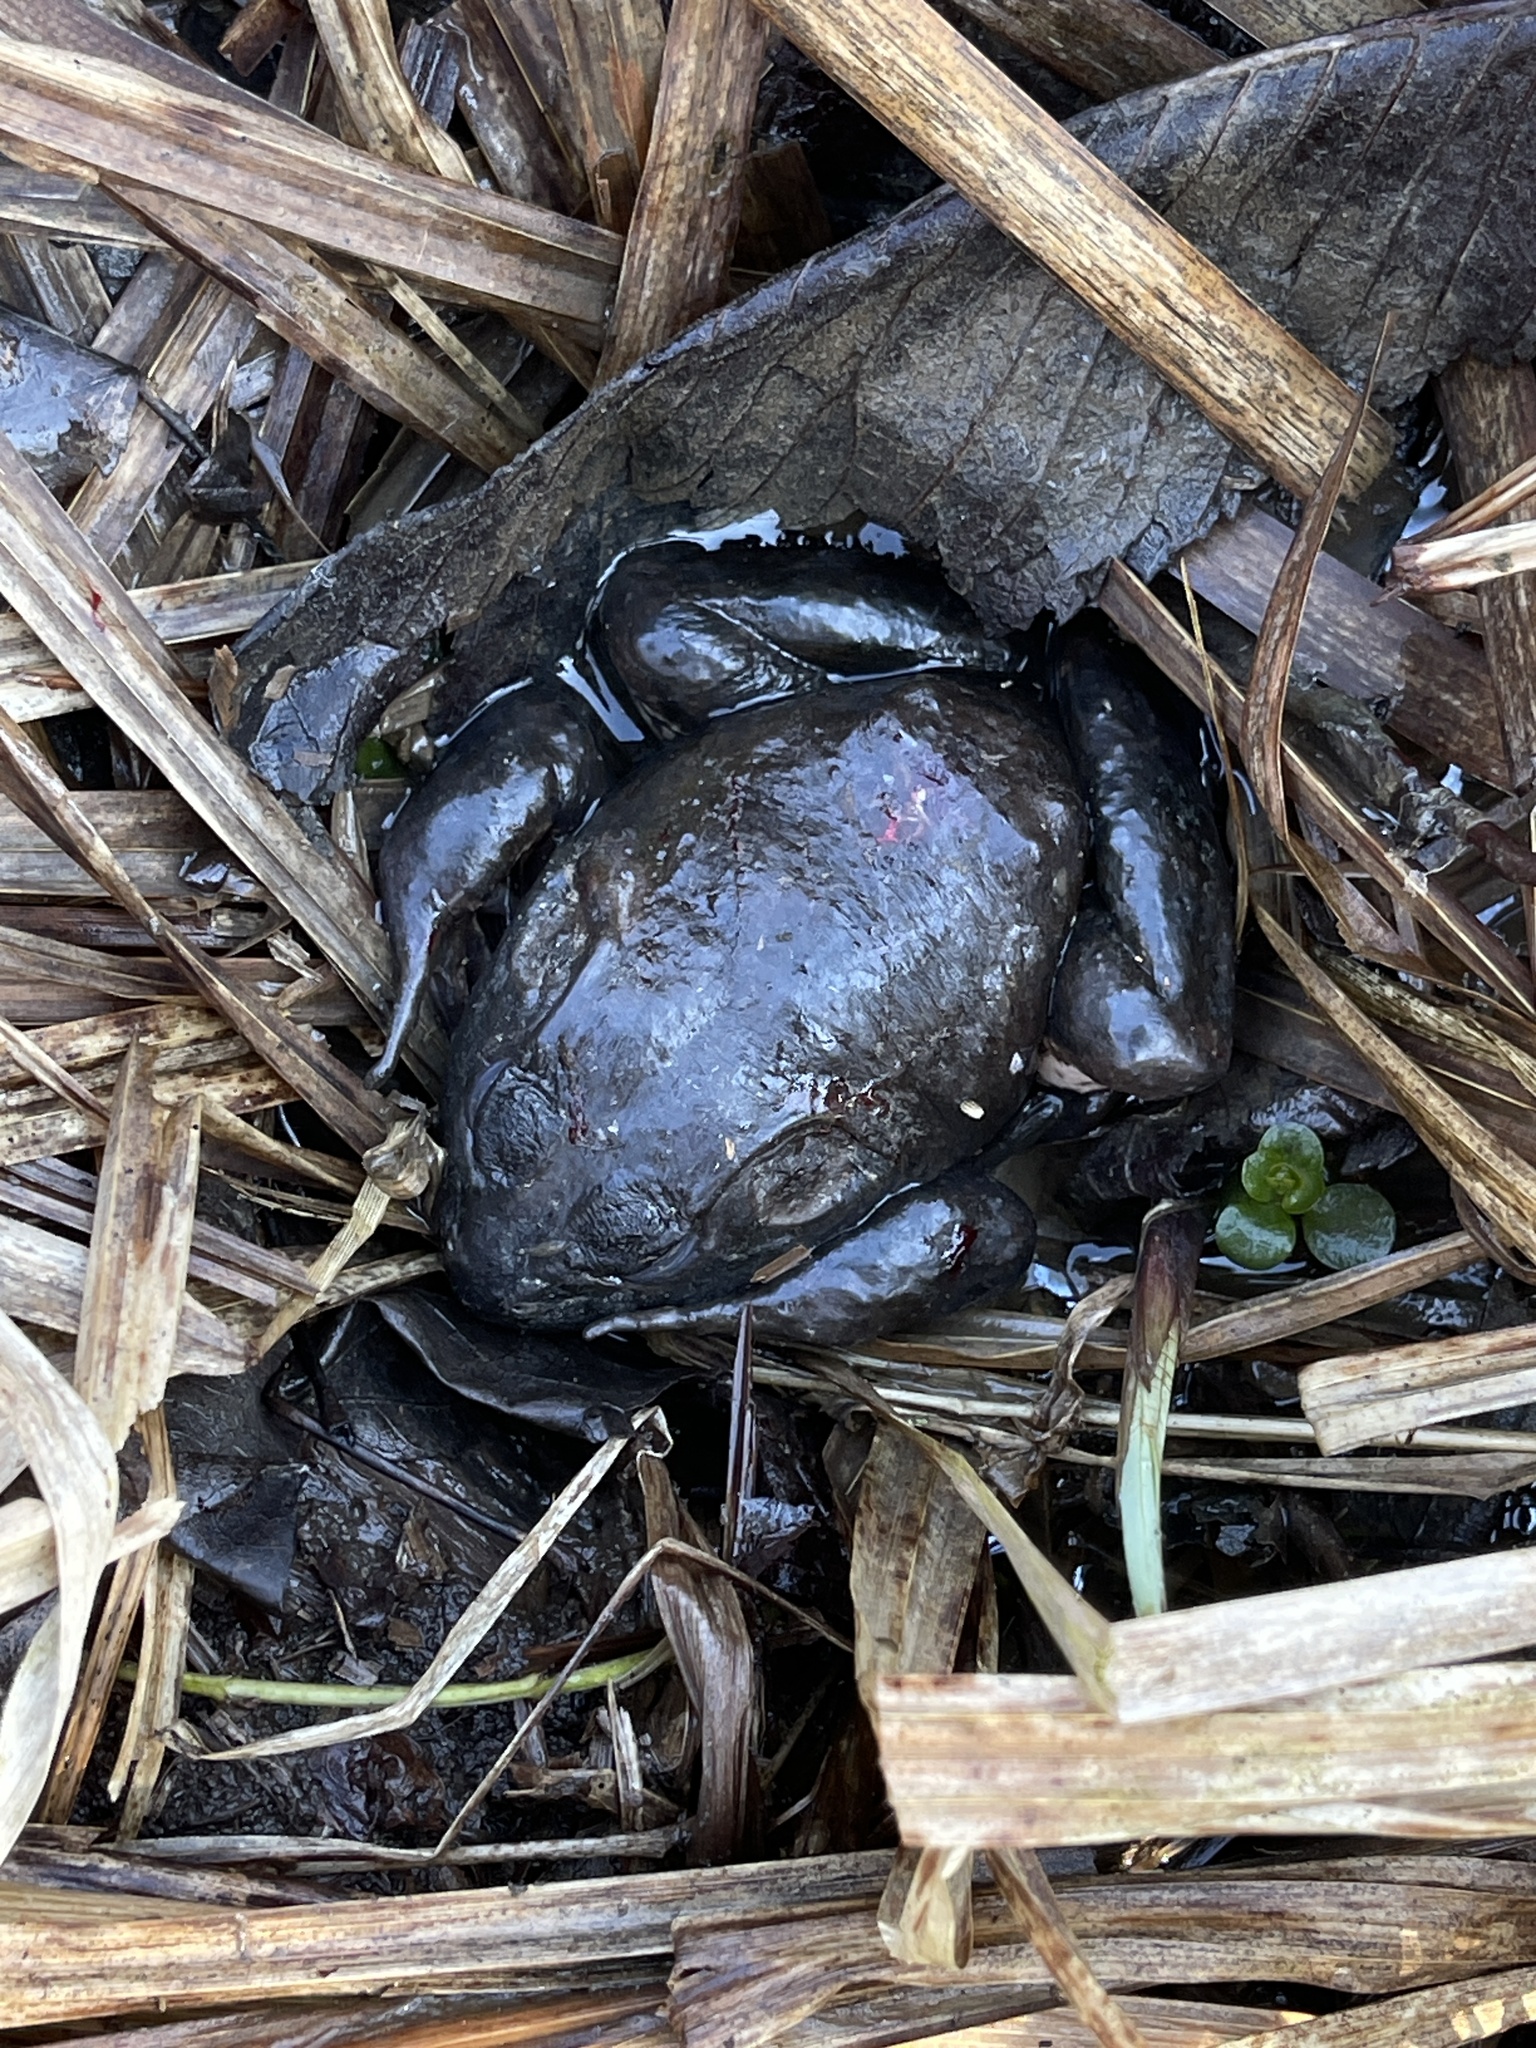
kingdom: Animalia
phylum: Chordata
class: Amphibia
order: Anura
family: Ranidae
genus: Lithobates
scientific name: Lithobates catesbeianus
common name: American bullfrog
